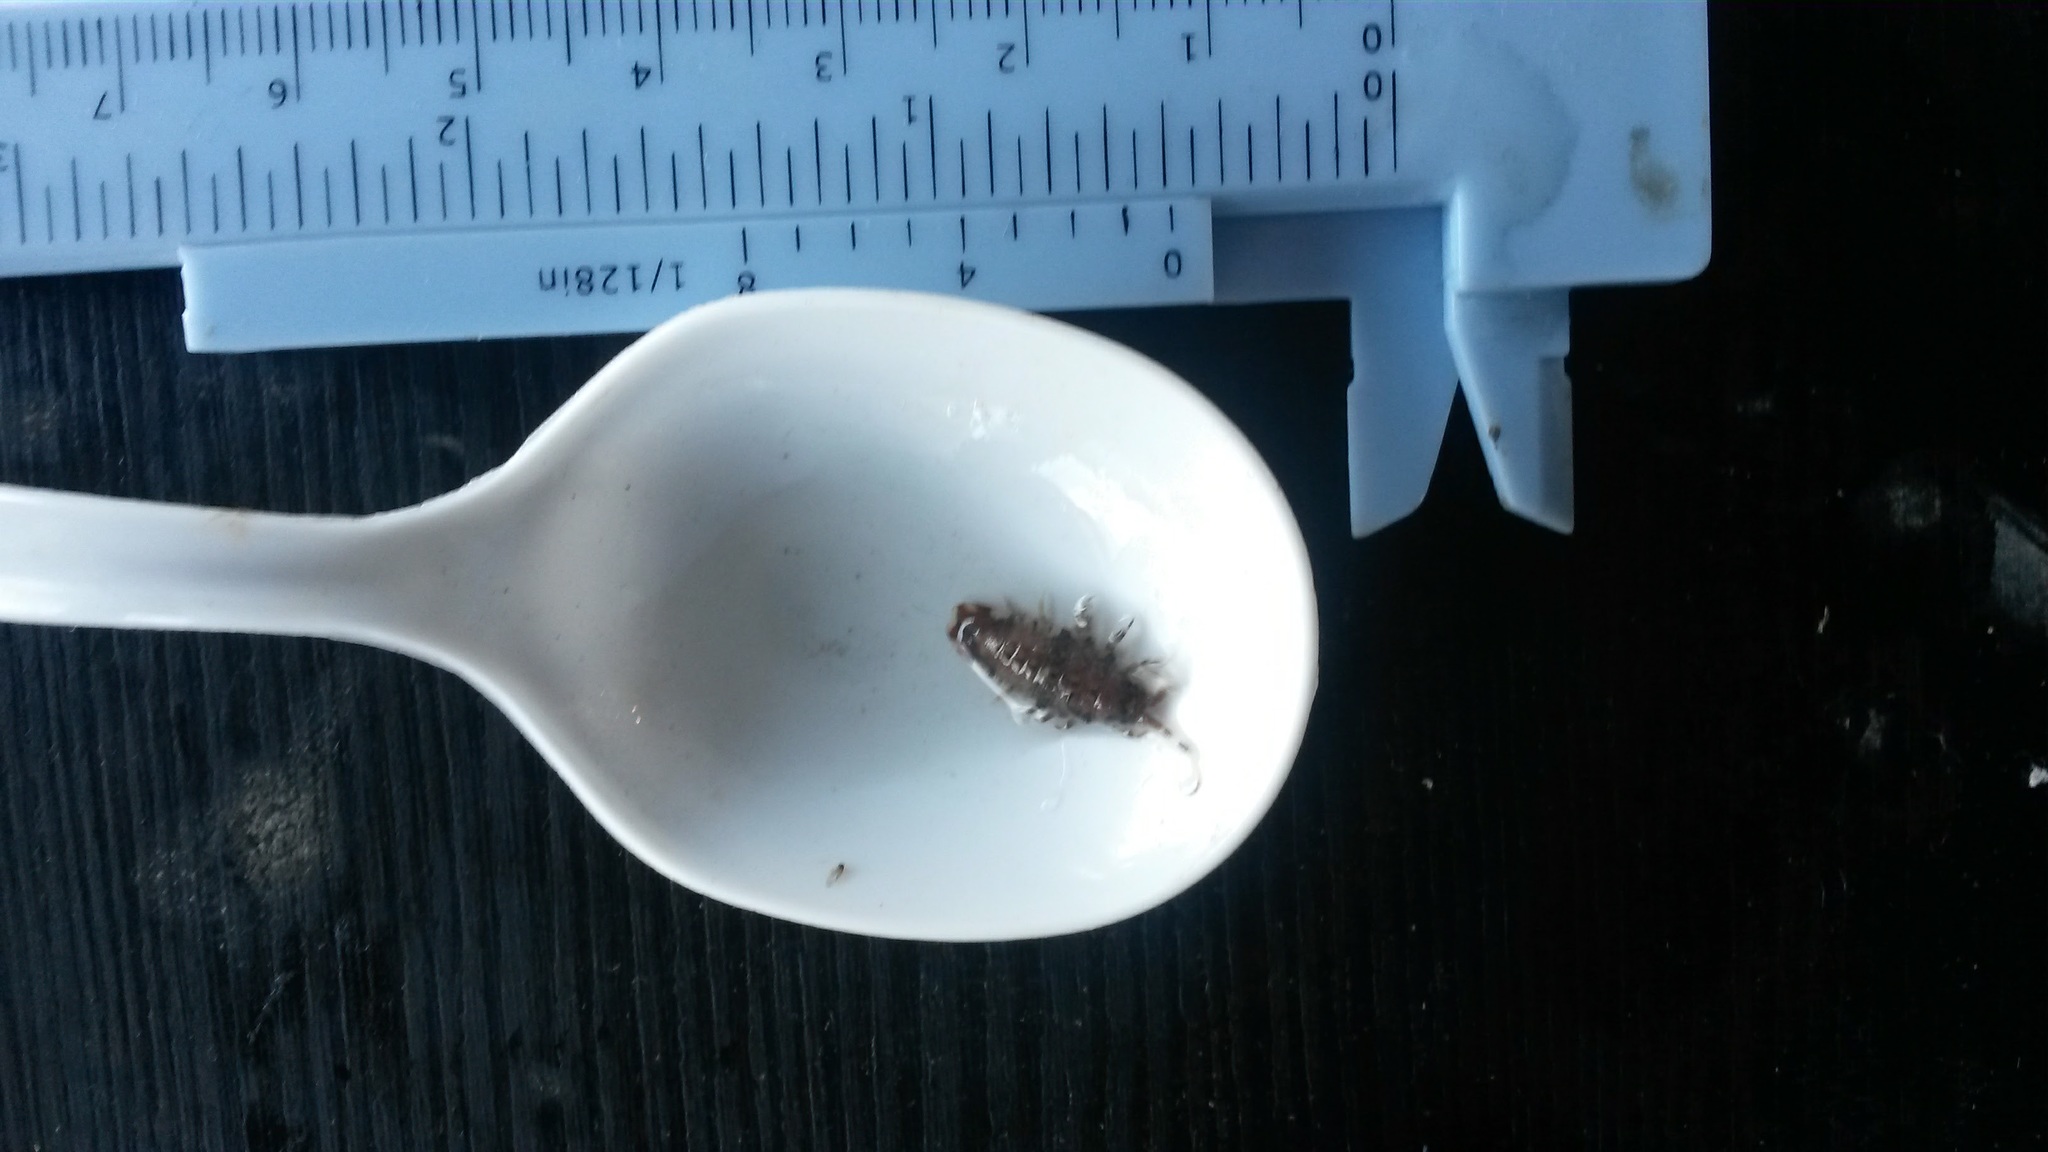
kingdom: Animalia
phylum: Arthropoda
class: Malacostraca
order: Isopoda
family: Idoteidae
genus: Synidotea
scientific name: Synidotea laticauda
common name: Isopod
